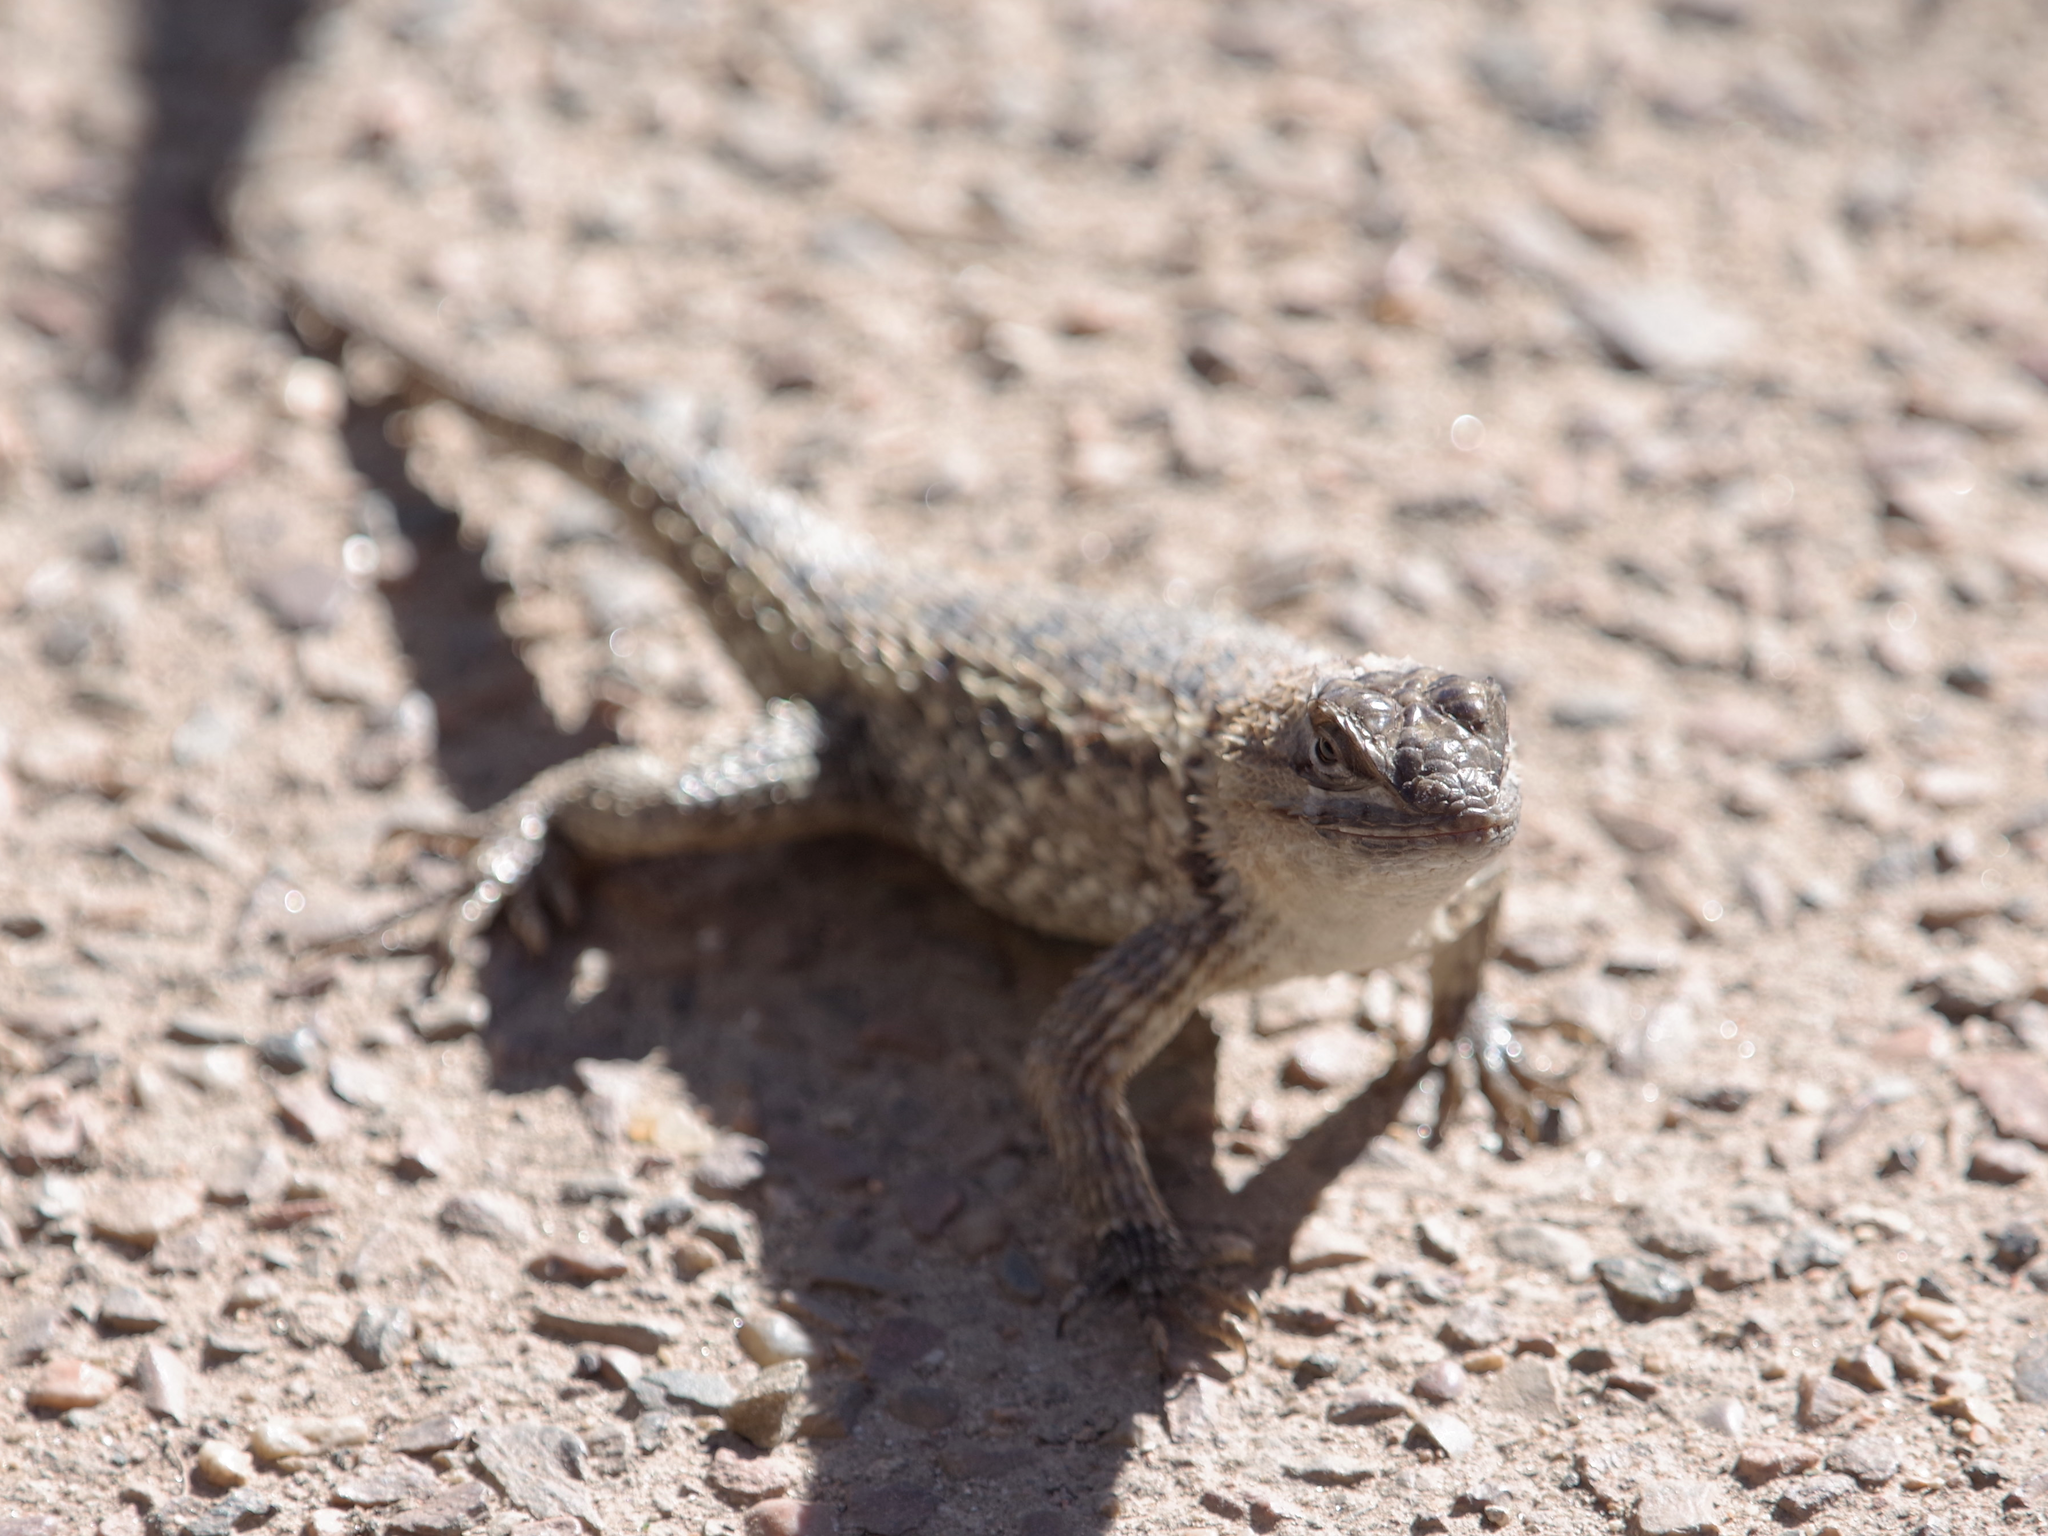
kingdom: Animalia
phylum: Chordata
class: Squamata
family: Phrynosomatidae
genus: Sceloporus
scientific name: Sceloporus magister
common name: Desert spiny lizard
